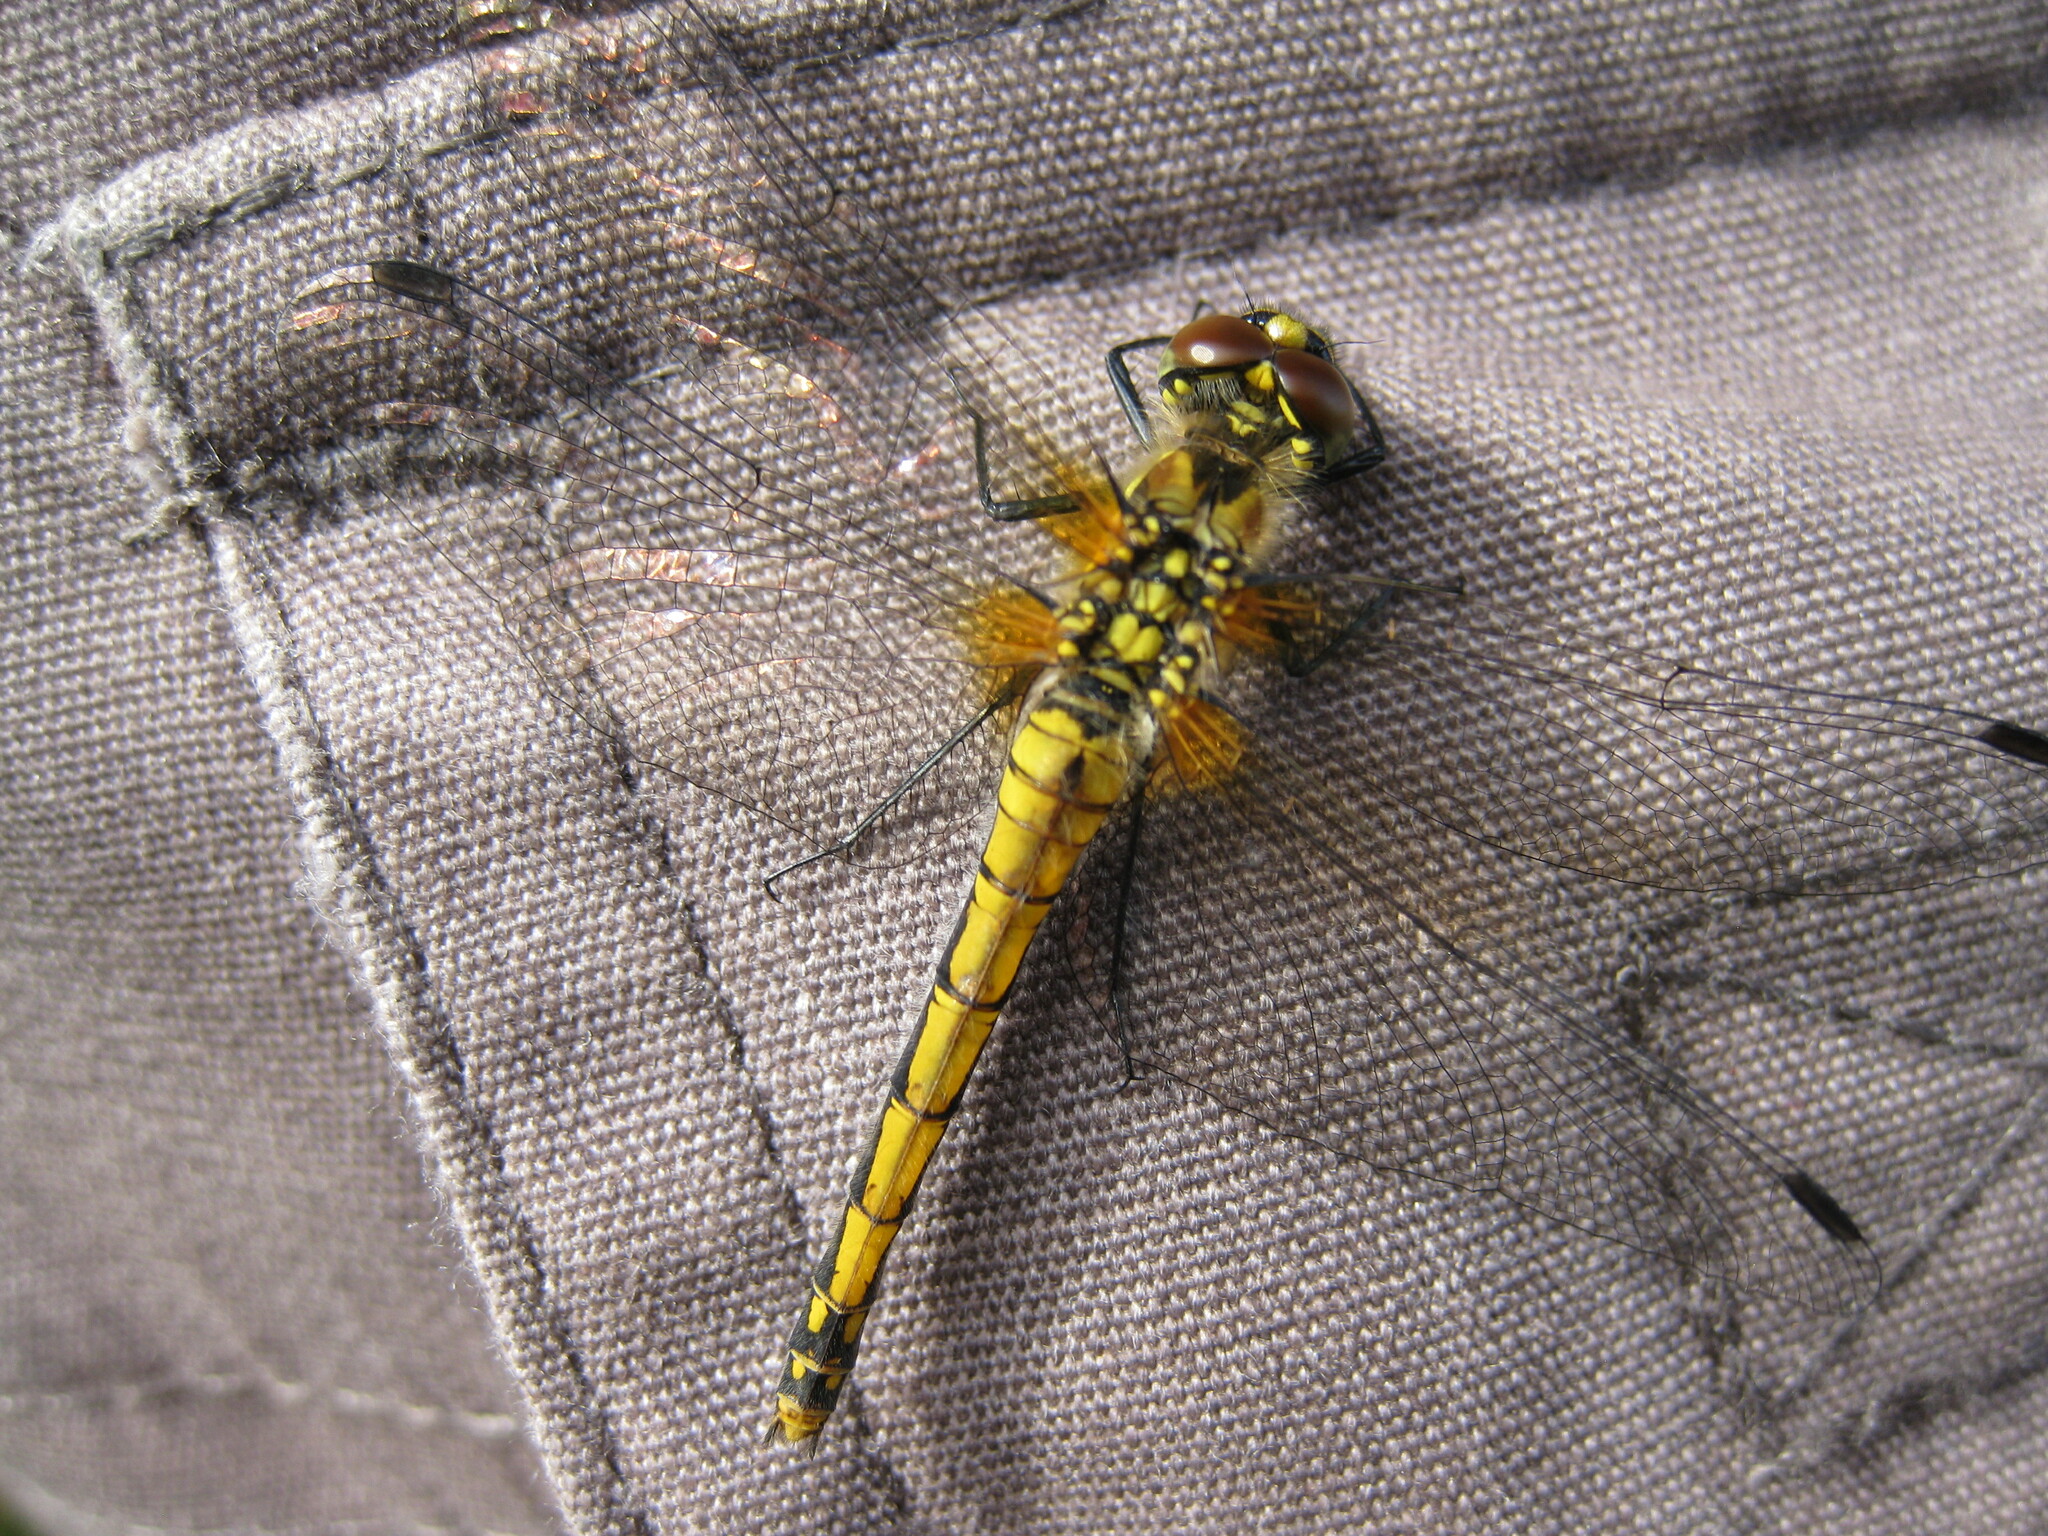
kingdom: Animalia
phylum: Arthropoda
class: Insecta
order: Odonata
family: Libellulidae
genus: Sympetrum
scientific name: Sympetrum danae
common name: Black darter
